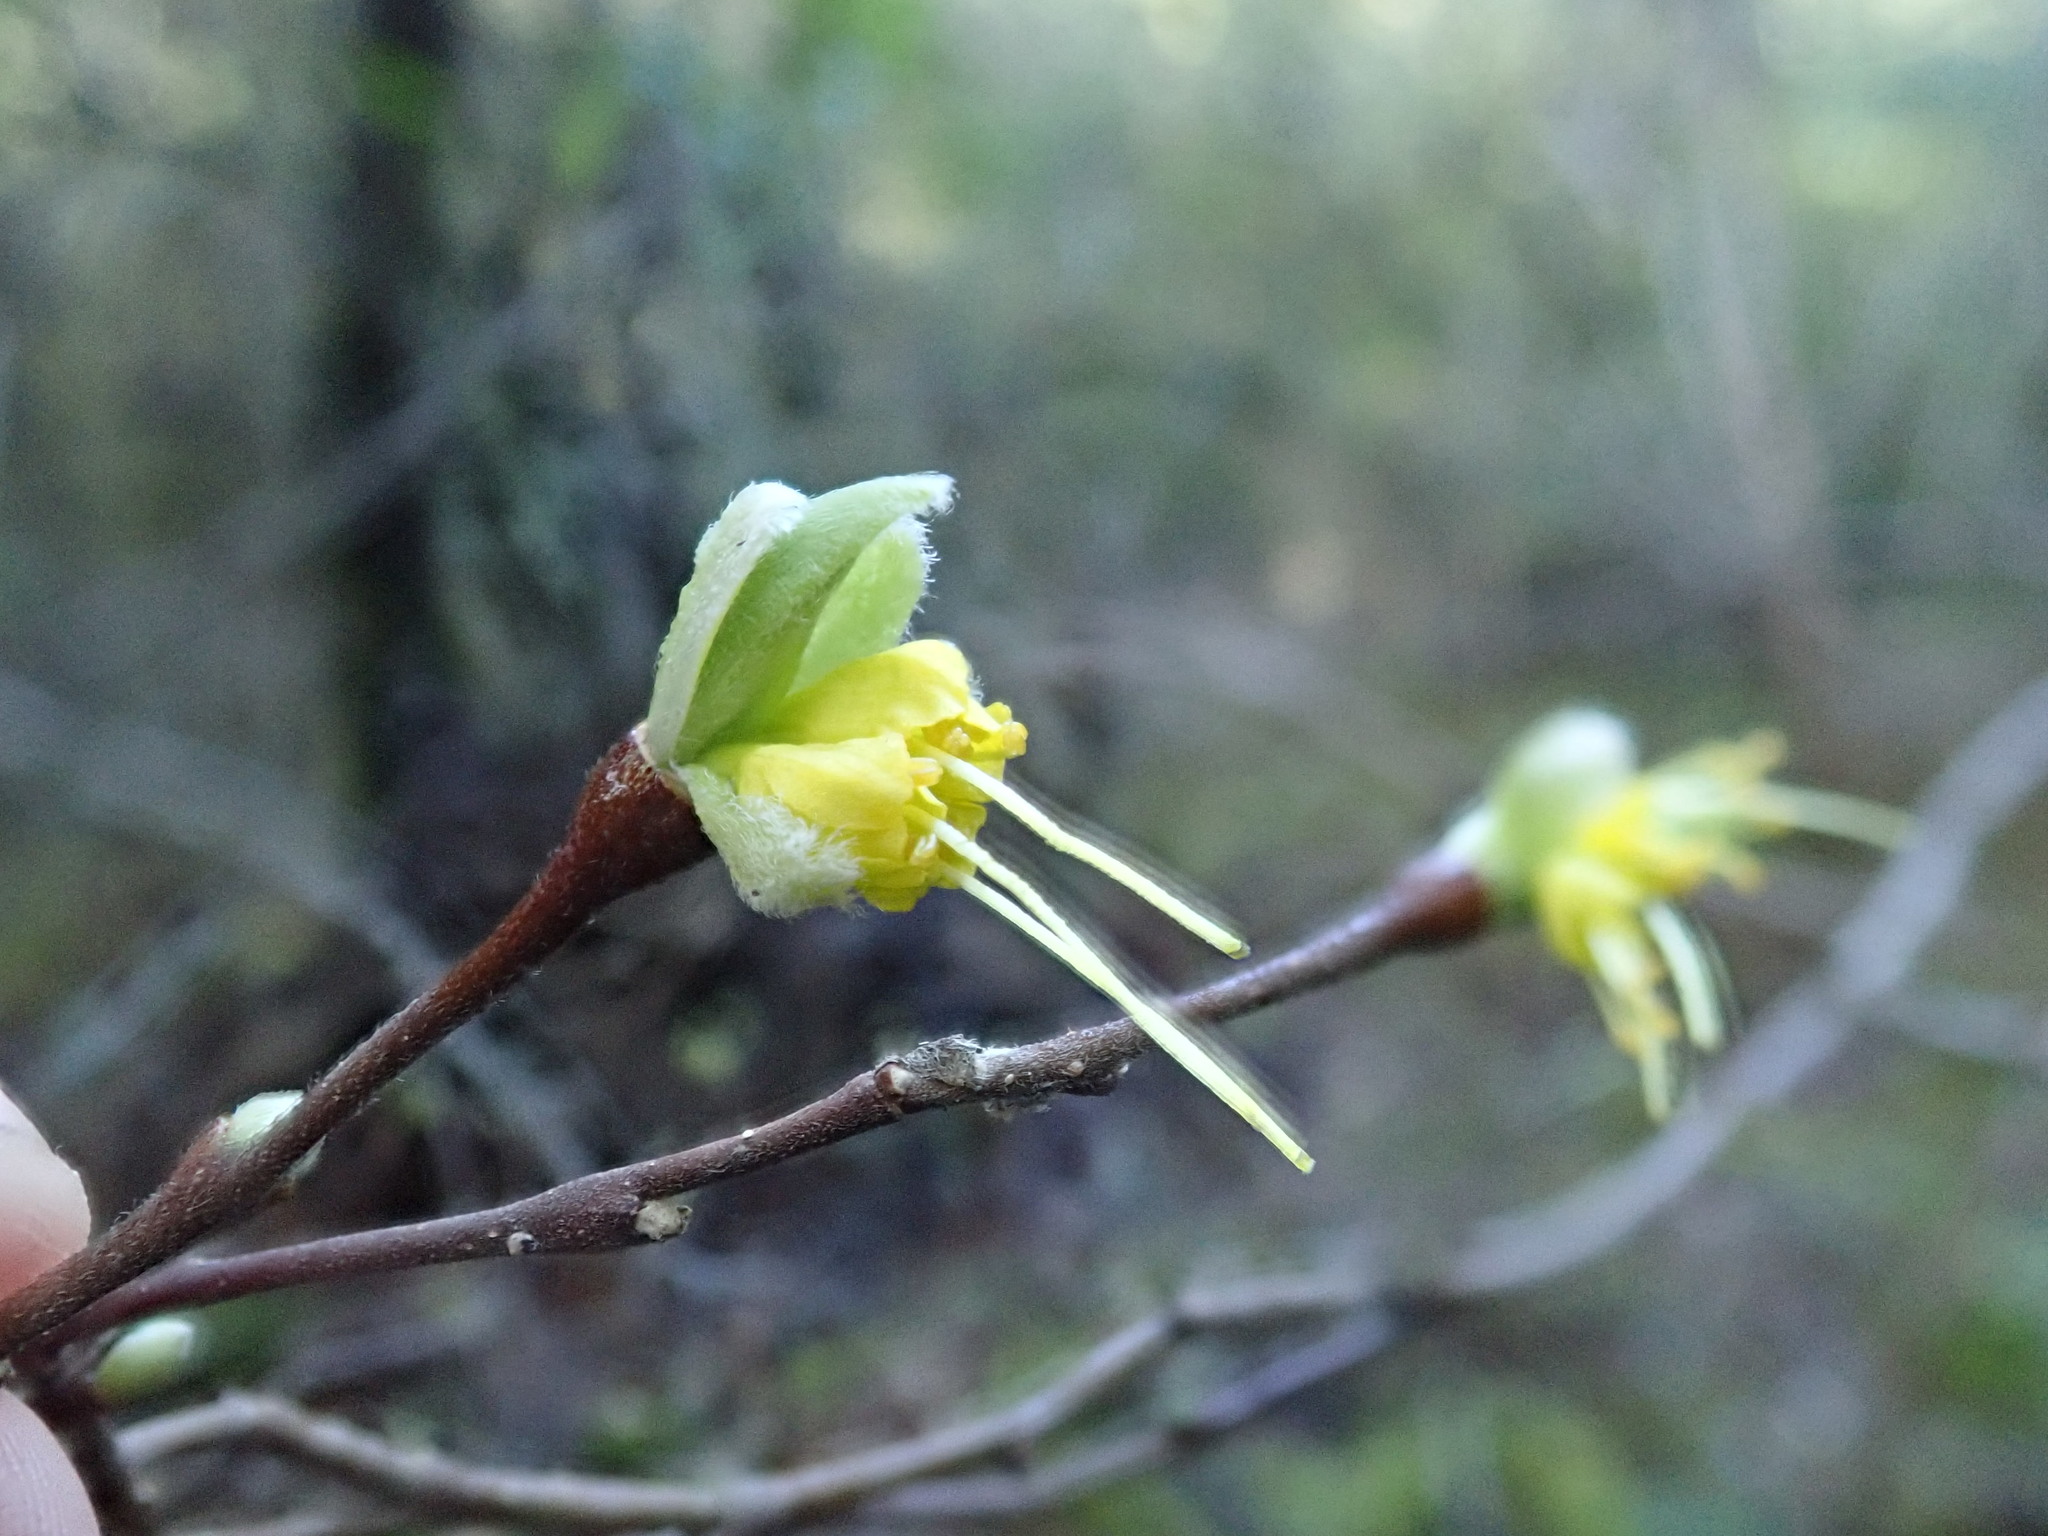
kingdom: Plantae
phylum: Tracheophyta
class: Magnoliopsida
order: Malvales
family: Thymelaeaceae
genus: Dirca
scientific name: Dirca occidentalis
